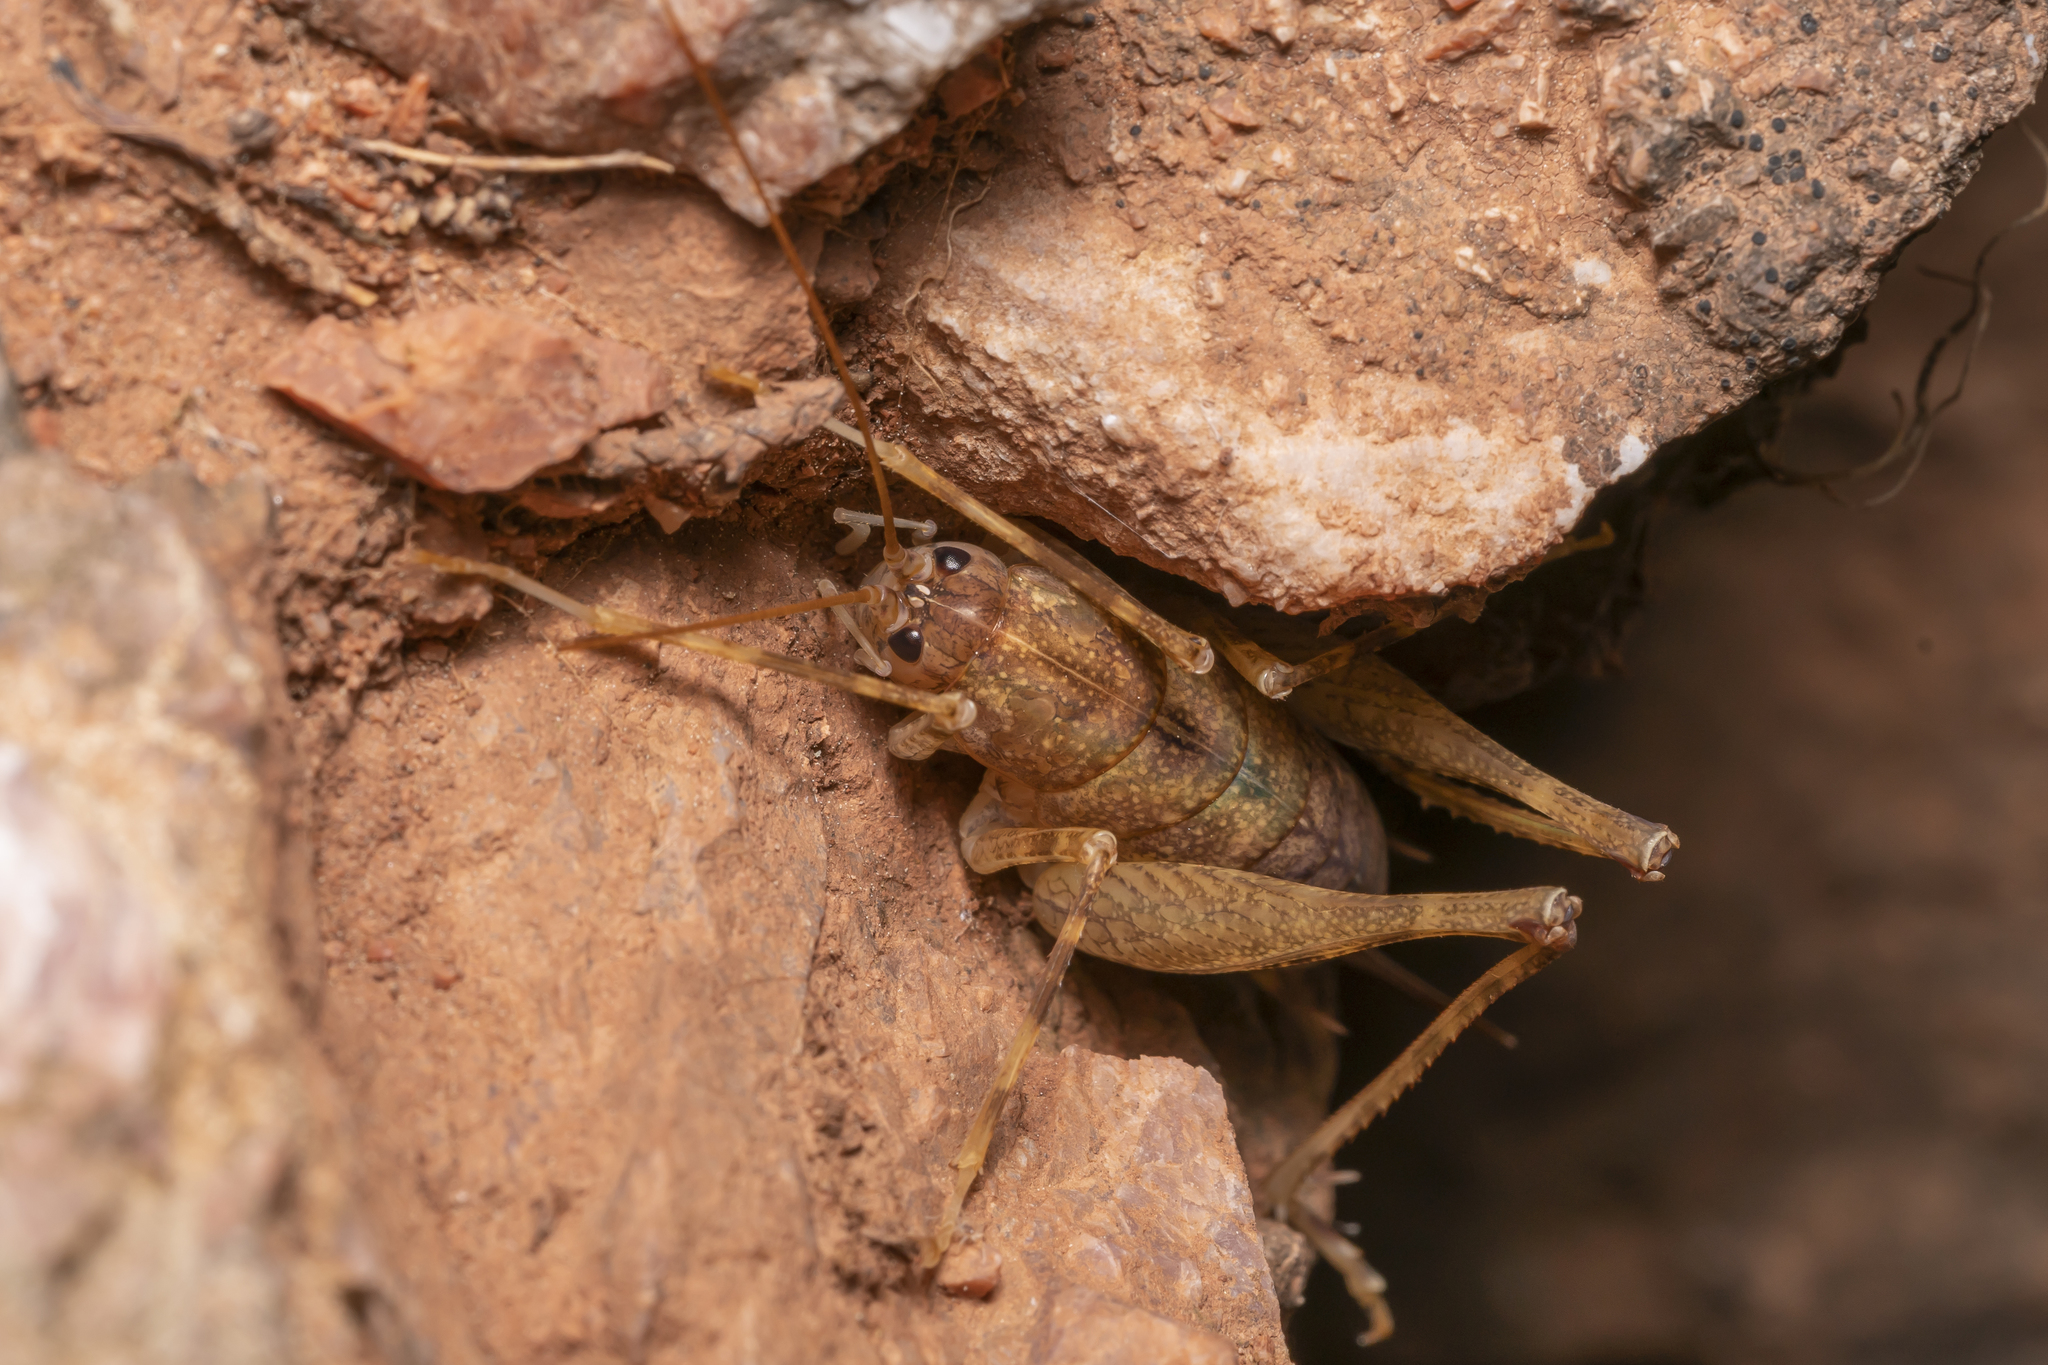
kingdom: Animalia
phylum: Arthropoda
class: Insecta
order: Orthoptera
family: Rhaphidophoridae
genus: Troglophilus
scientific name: Troglophilus lagoi
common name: Lago's cave-cricket
